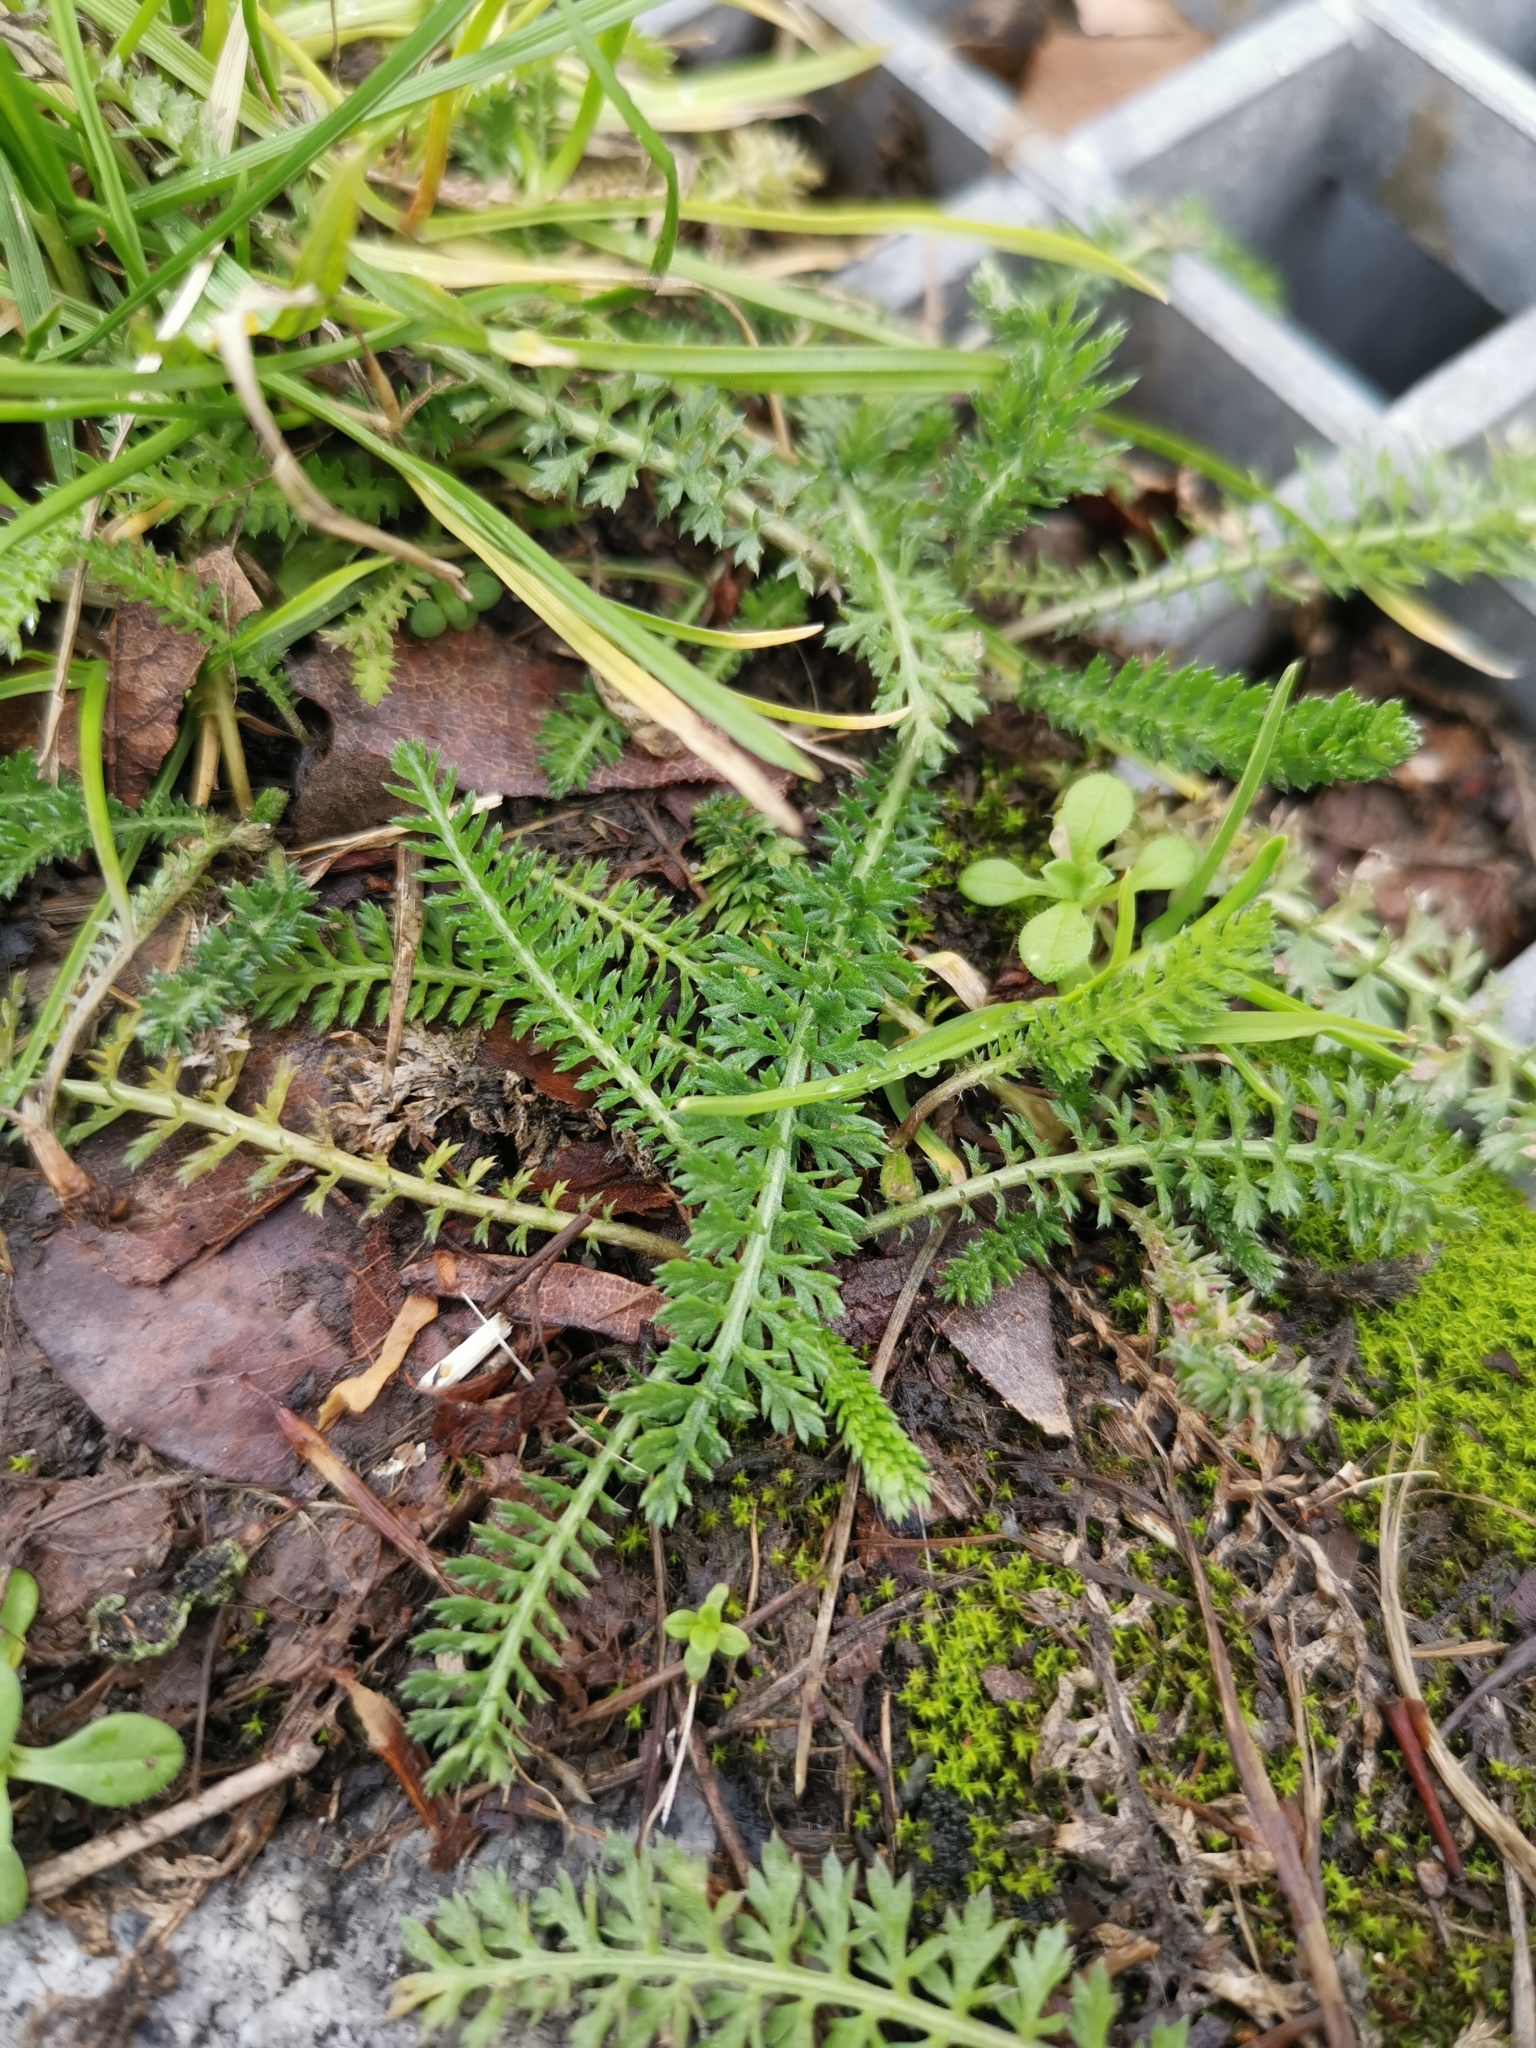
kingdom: Plantae
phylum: Tracheophyta
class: Magnoliopsida
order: Asterales
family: Asteraceae
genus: Achillea
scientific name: Achillea millefolium
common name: Yarrow
